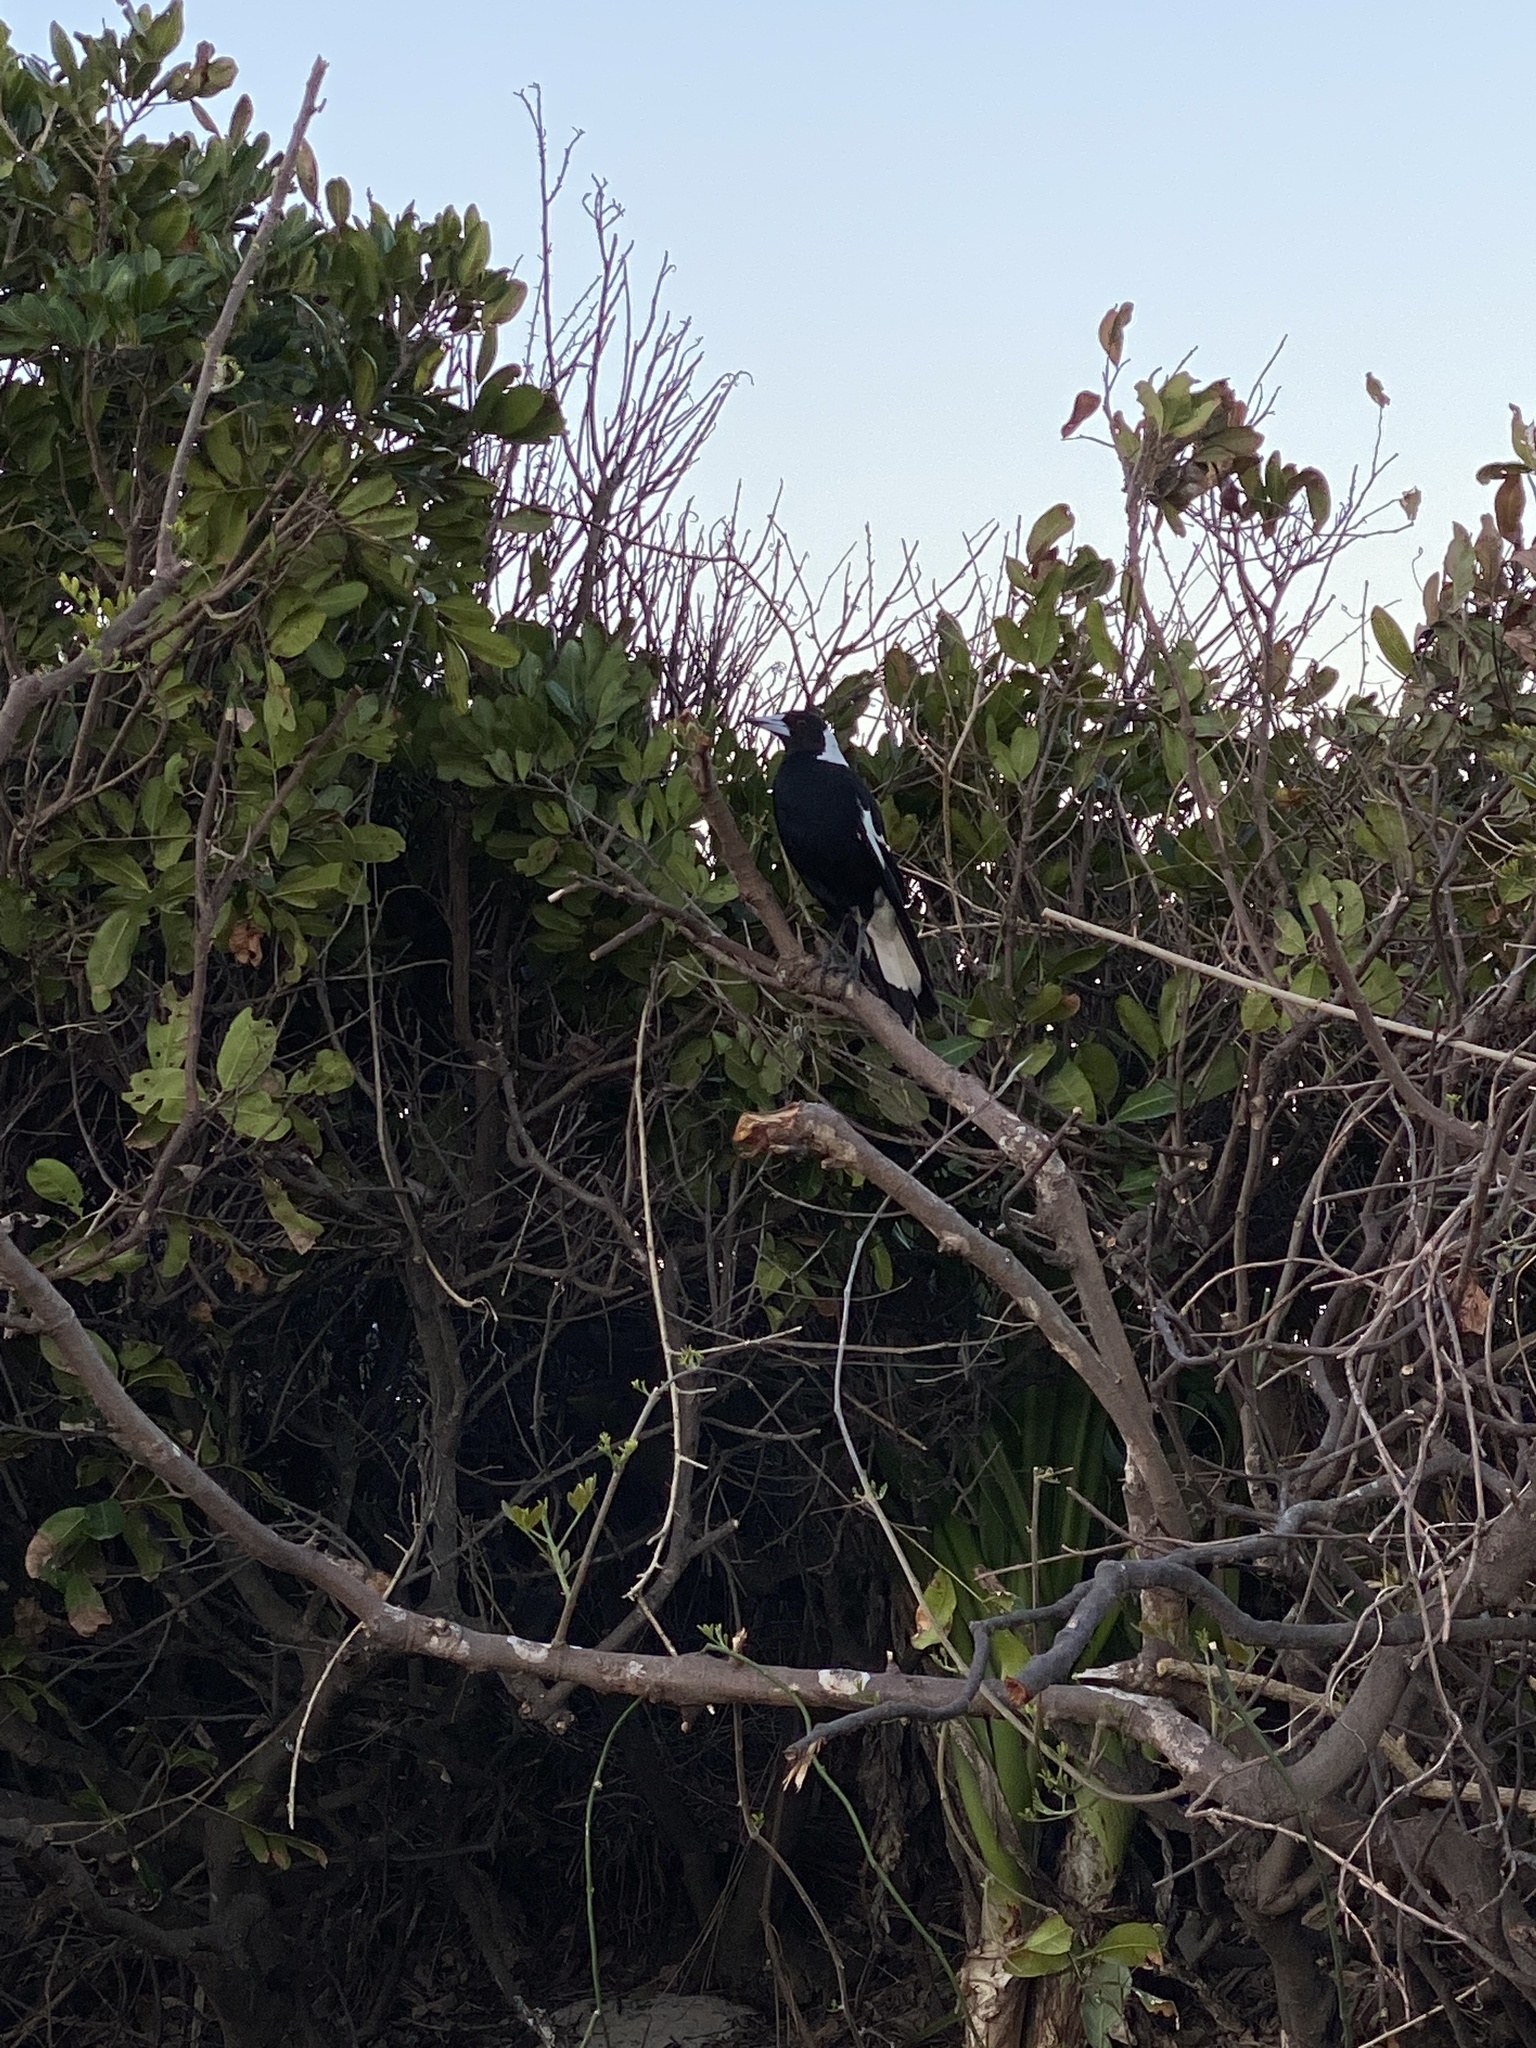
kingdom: Animalia
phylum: Chordata
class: Aves
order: Passeriformes
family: Cracticidae
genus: Gymnorhina
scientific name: Gymnorhina tibicen
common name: Australian magpie
